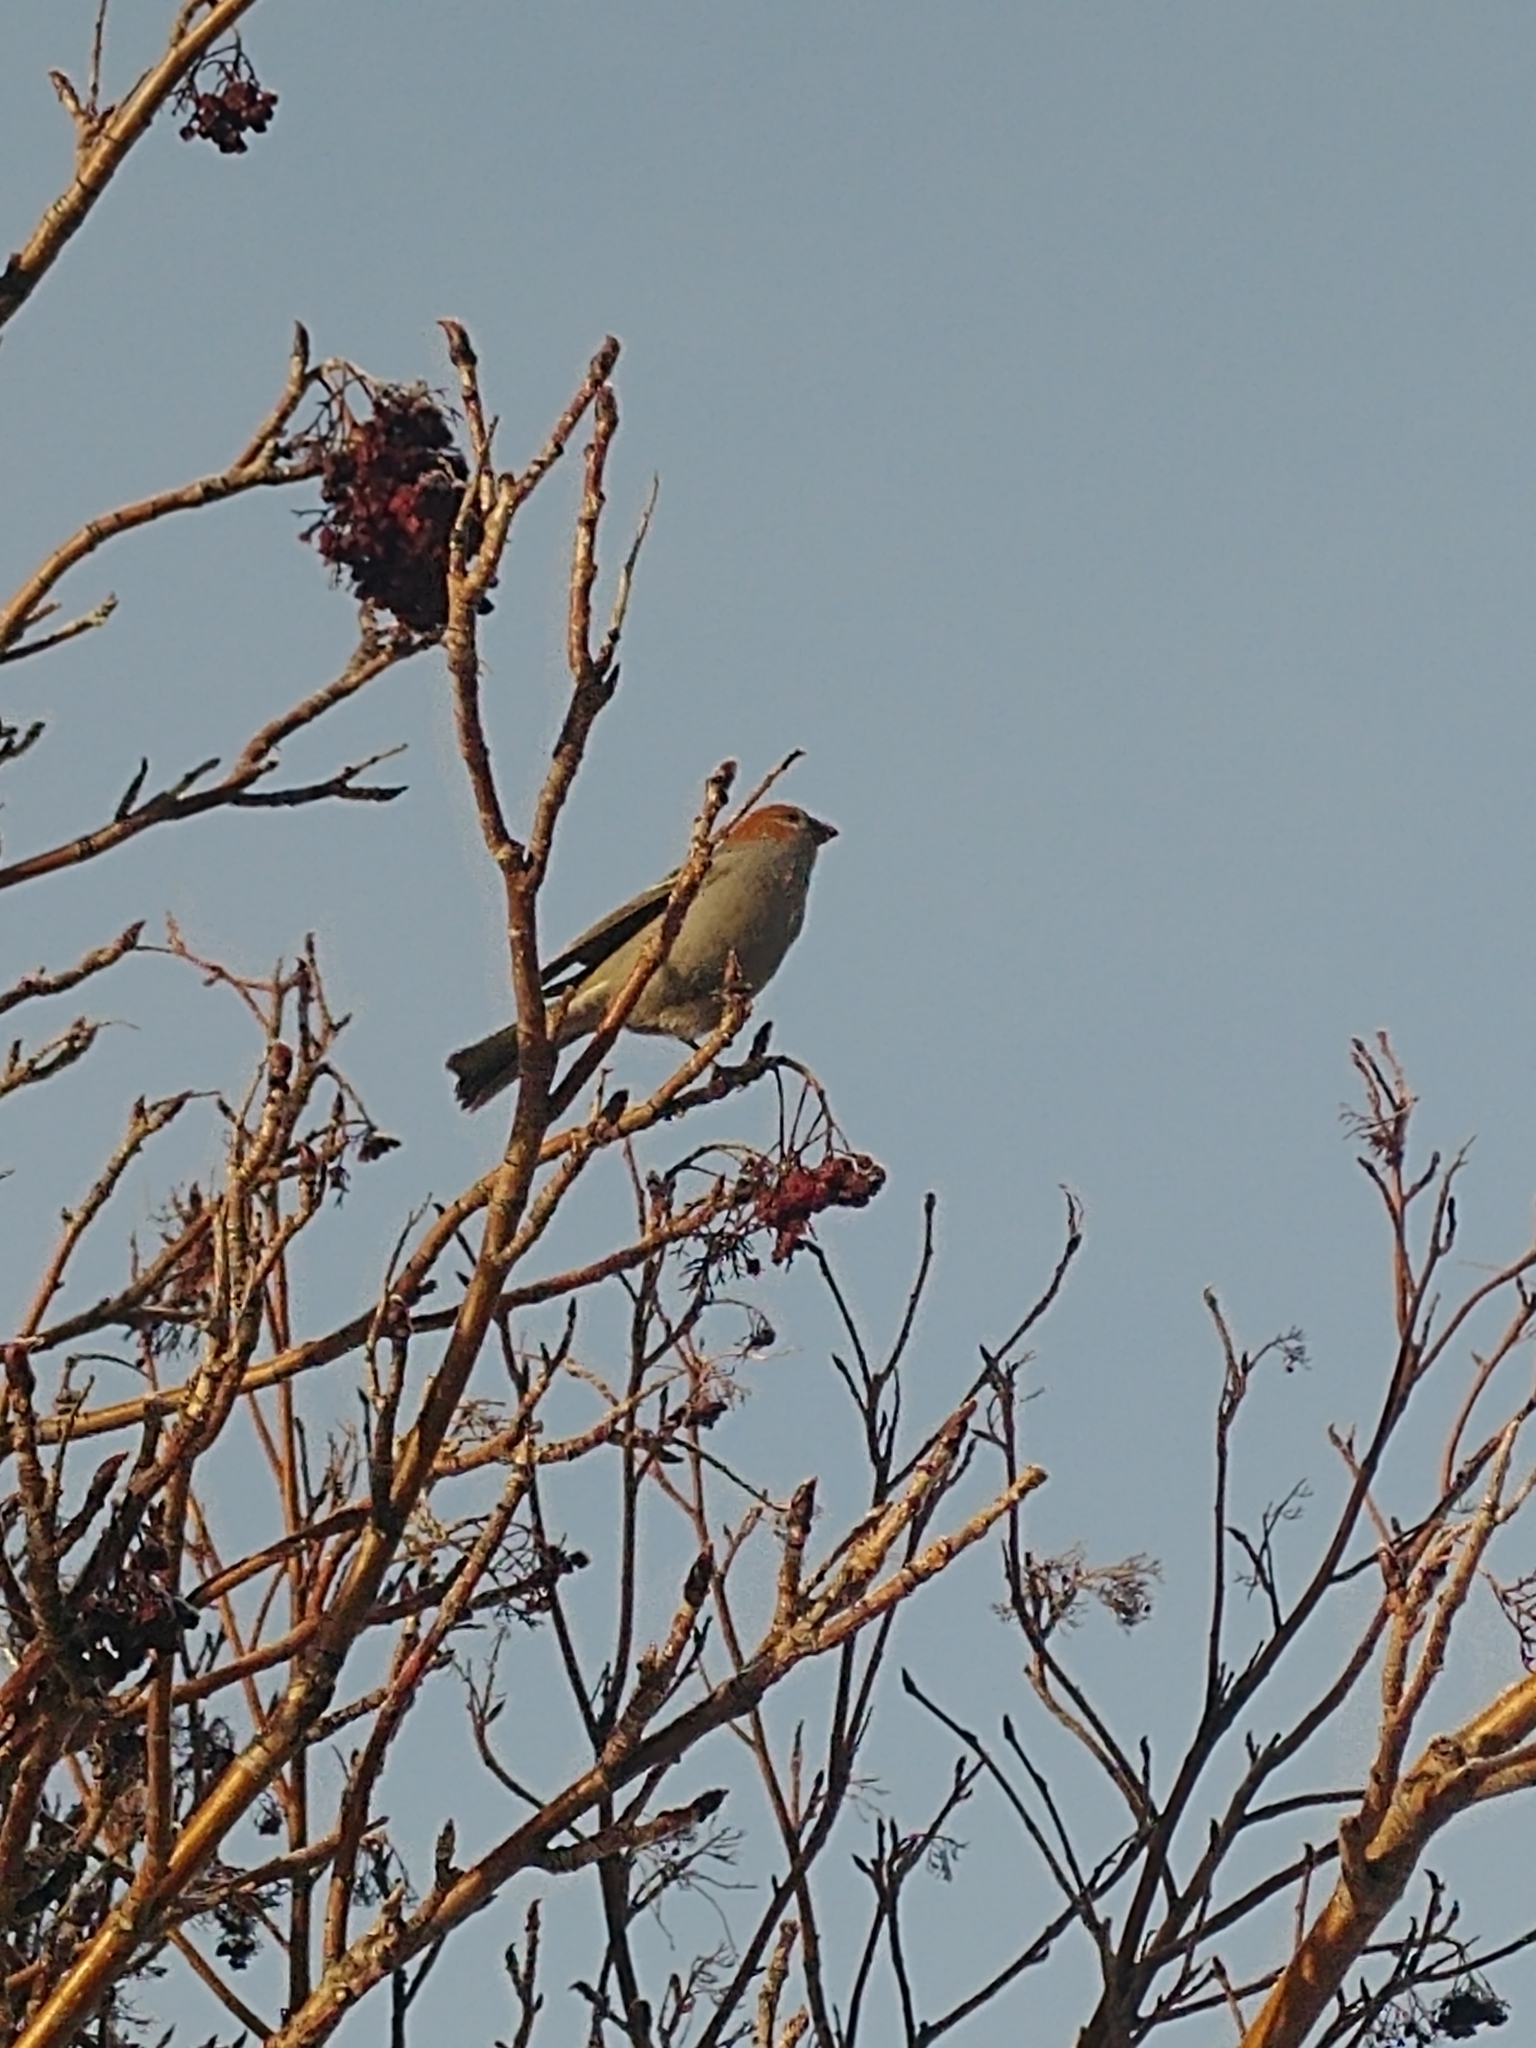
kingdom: Animalia
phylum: Chordata
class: Aves
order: Passeriformes
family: Fringillidae
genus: Pinicola
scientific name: Pinicola enucleator
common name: Pine grosbeak
